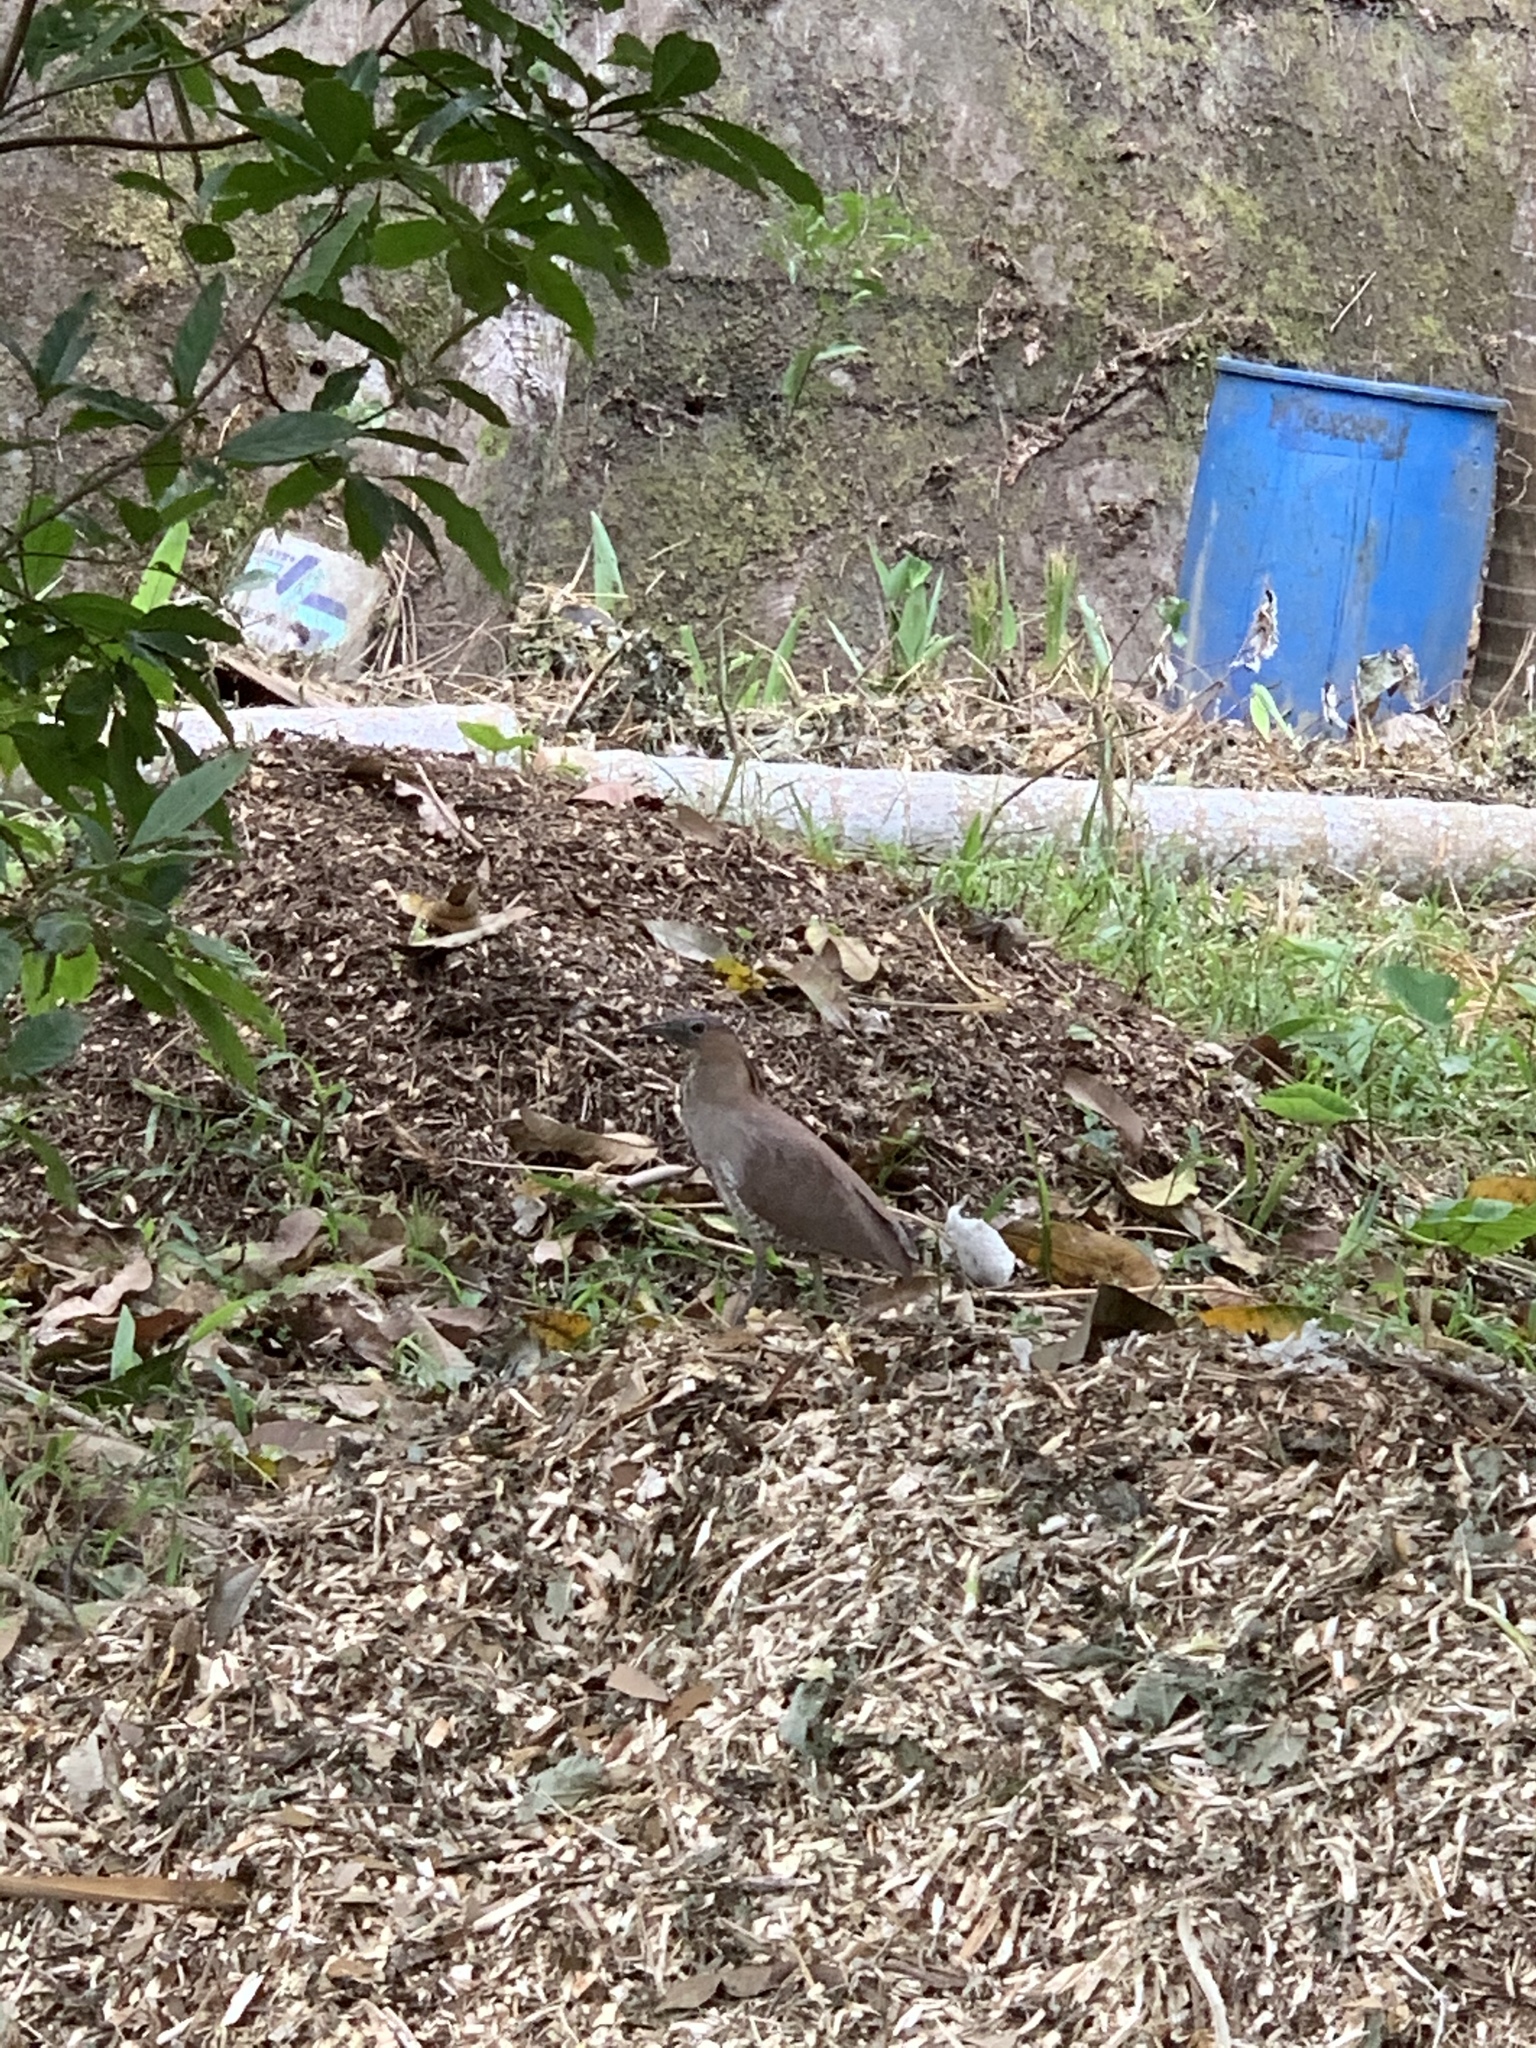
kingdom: Animalia
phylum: Chordata
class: Aves
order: Pelecaniformes
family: Ardeidae
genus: Gorsachius
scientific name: Gorsachius melanolophus
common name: Malayan night heron
